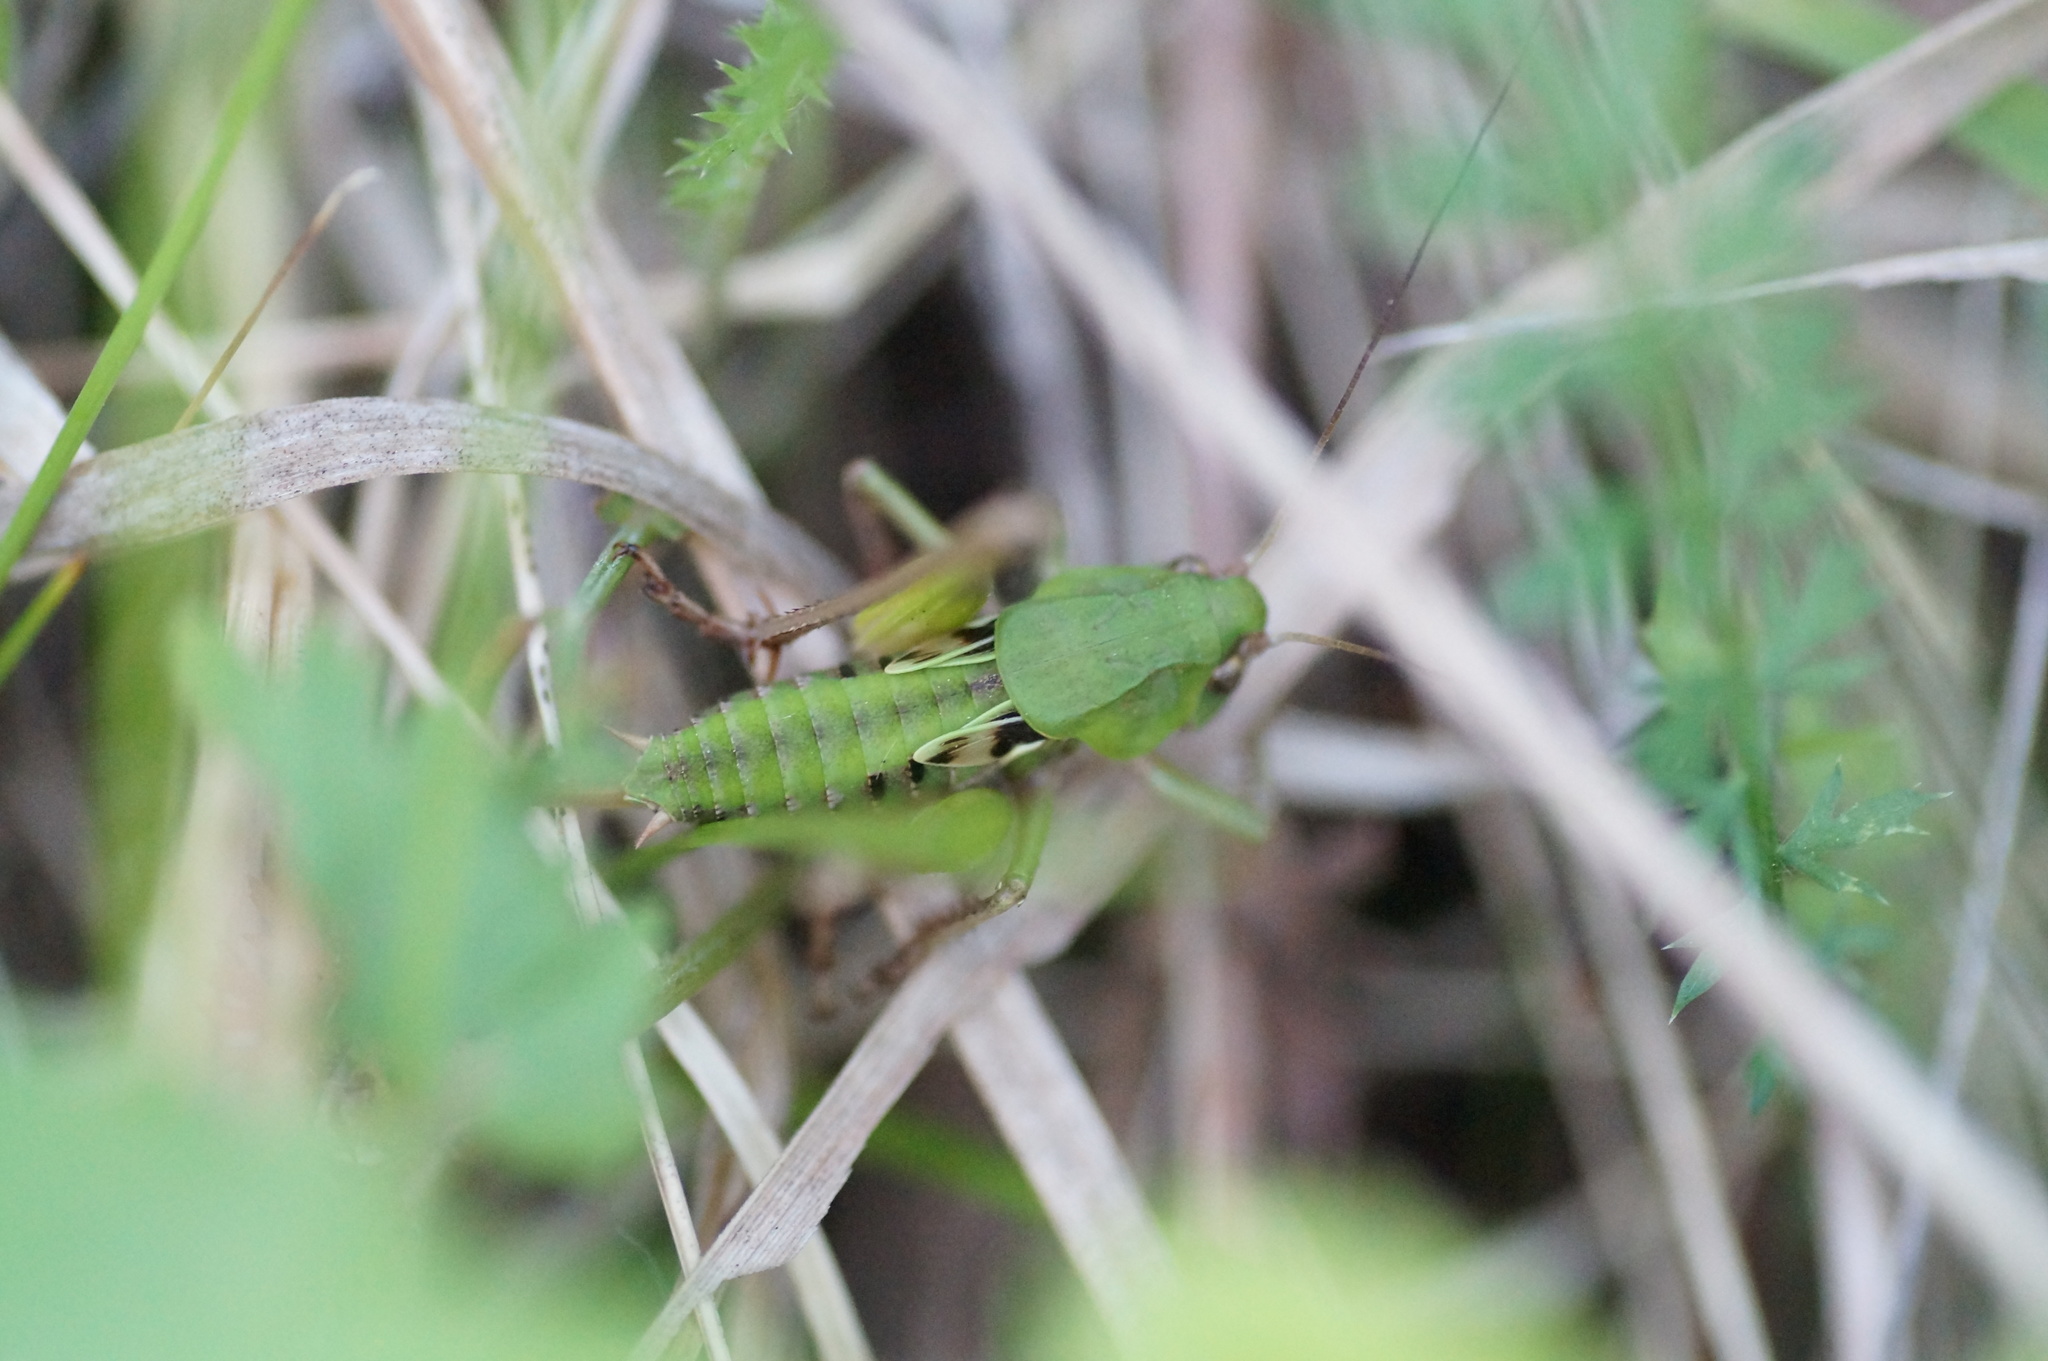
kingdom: Animalia
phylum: Arthropoda
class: Insecta
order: Orthoptera
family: Tettigoniidae
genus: Decticus
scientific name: Decticus verrucivorus
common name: Wart-biter
